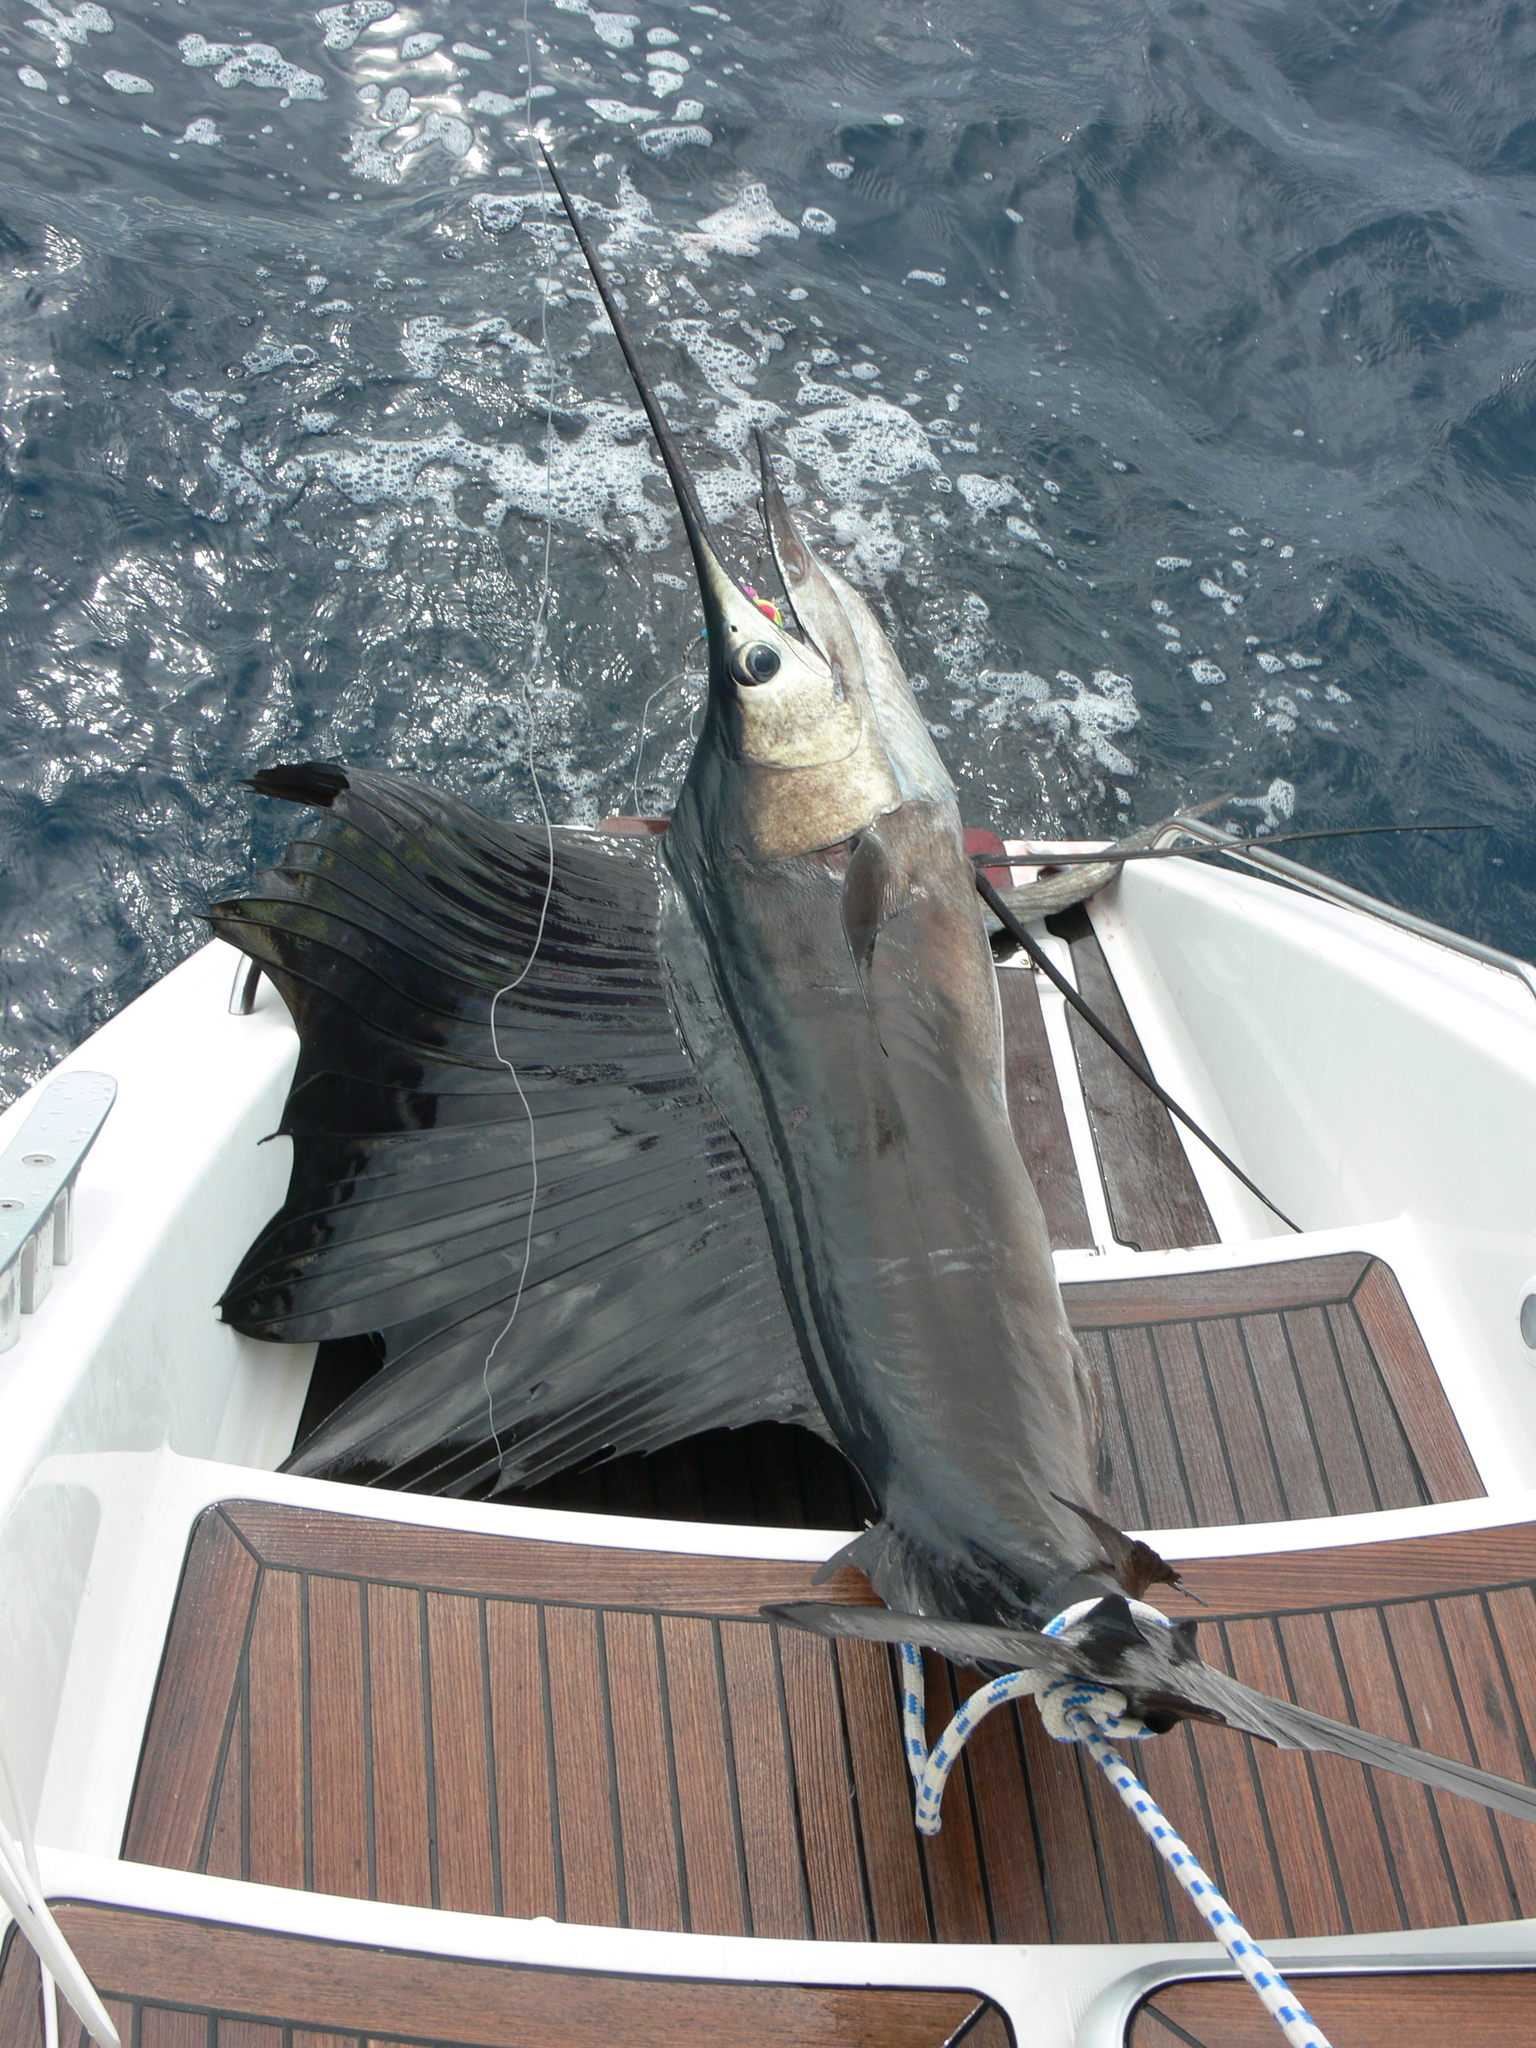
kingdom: Animalia
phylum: Chordata
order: Perciformes
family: Istiophoridae
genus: Istiophorus
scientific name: Istiophorus platypterus
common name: Sailfish
